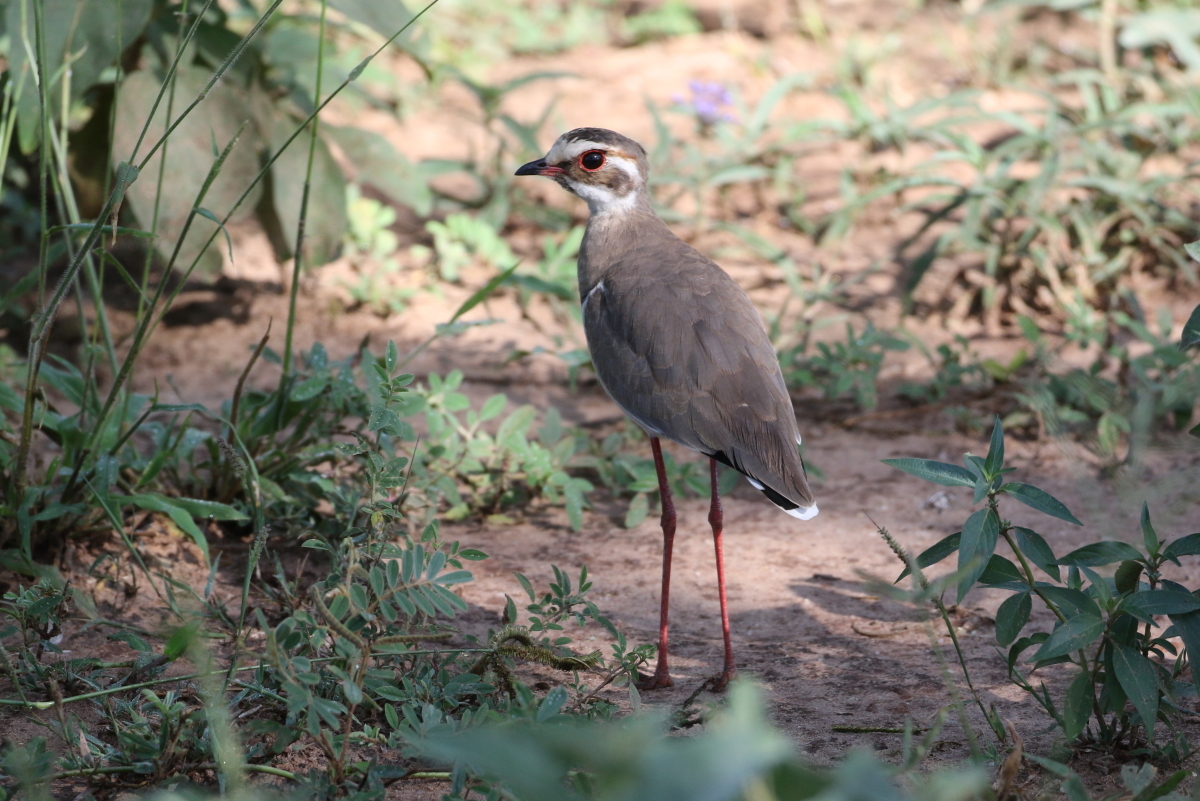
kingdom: Animalia
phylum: Chordata
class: Aves
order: Charadriiformes
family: Glareolidae
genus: Rhinoptilus
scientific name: Rhinoptilus chalcopterus
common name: Bronze-winged courser
